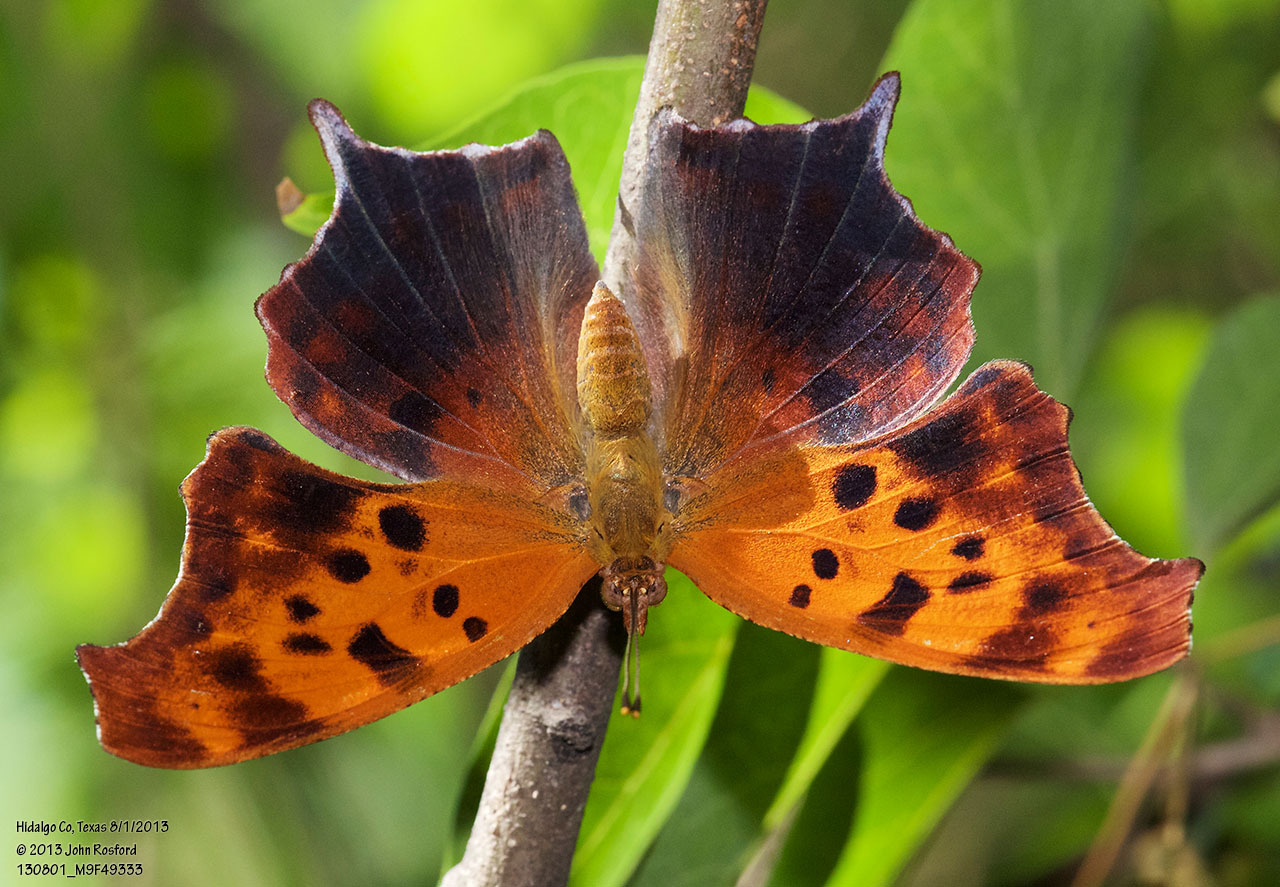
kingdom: Animalia
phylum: Arthropoda
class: Insecta
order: Lepidoptera
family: Nymphalidae
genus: Polygonia
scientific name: Polygonia interrogationis
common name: Question mark
